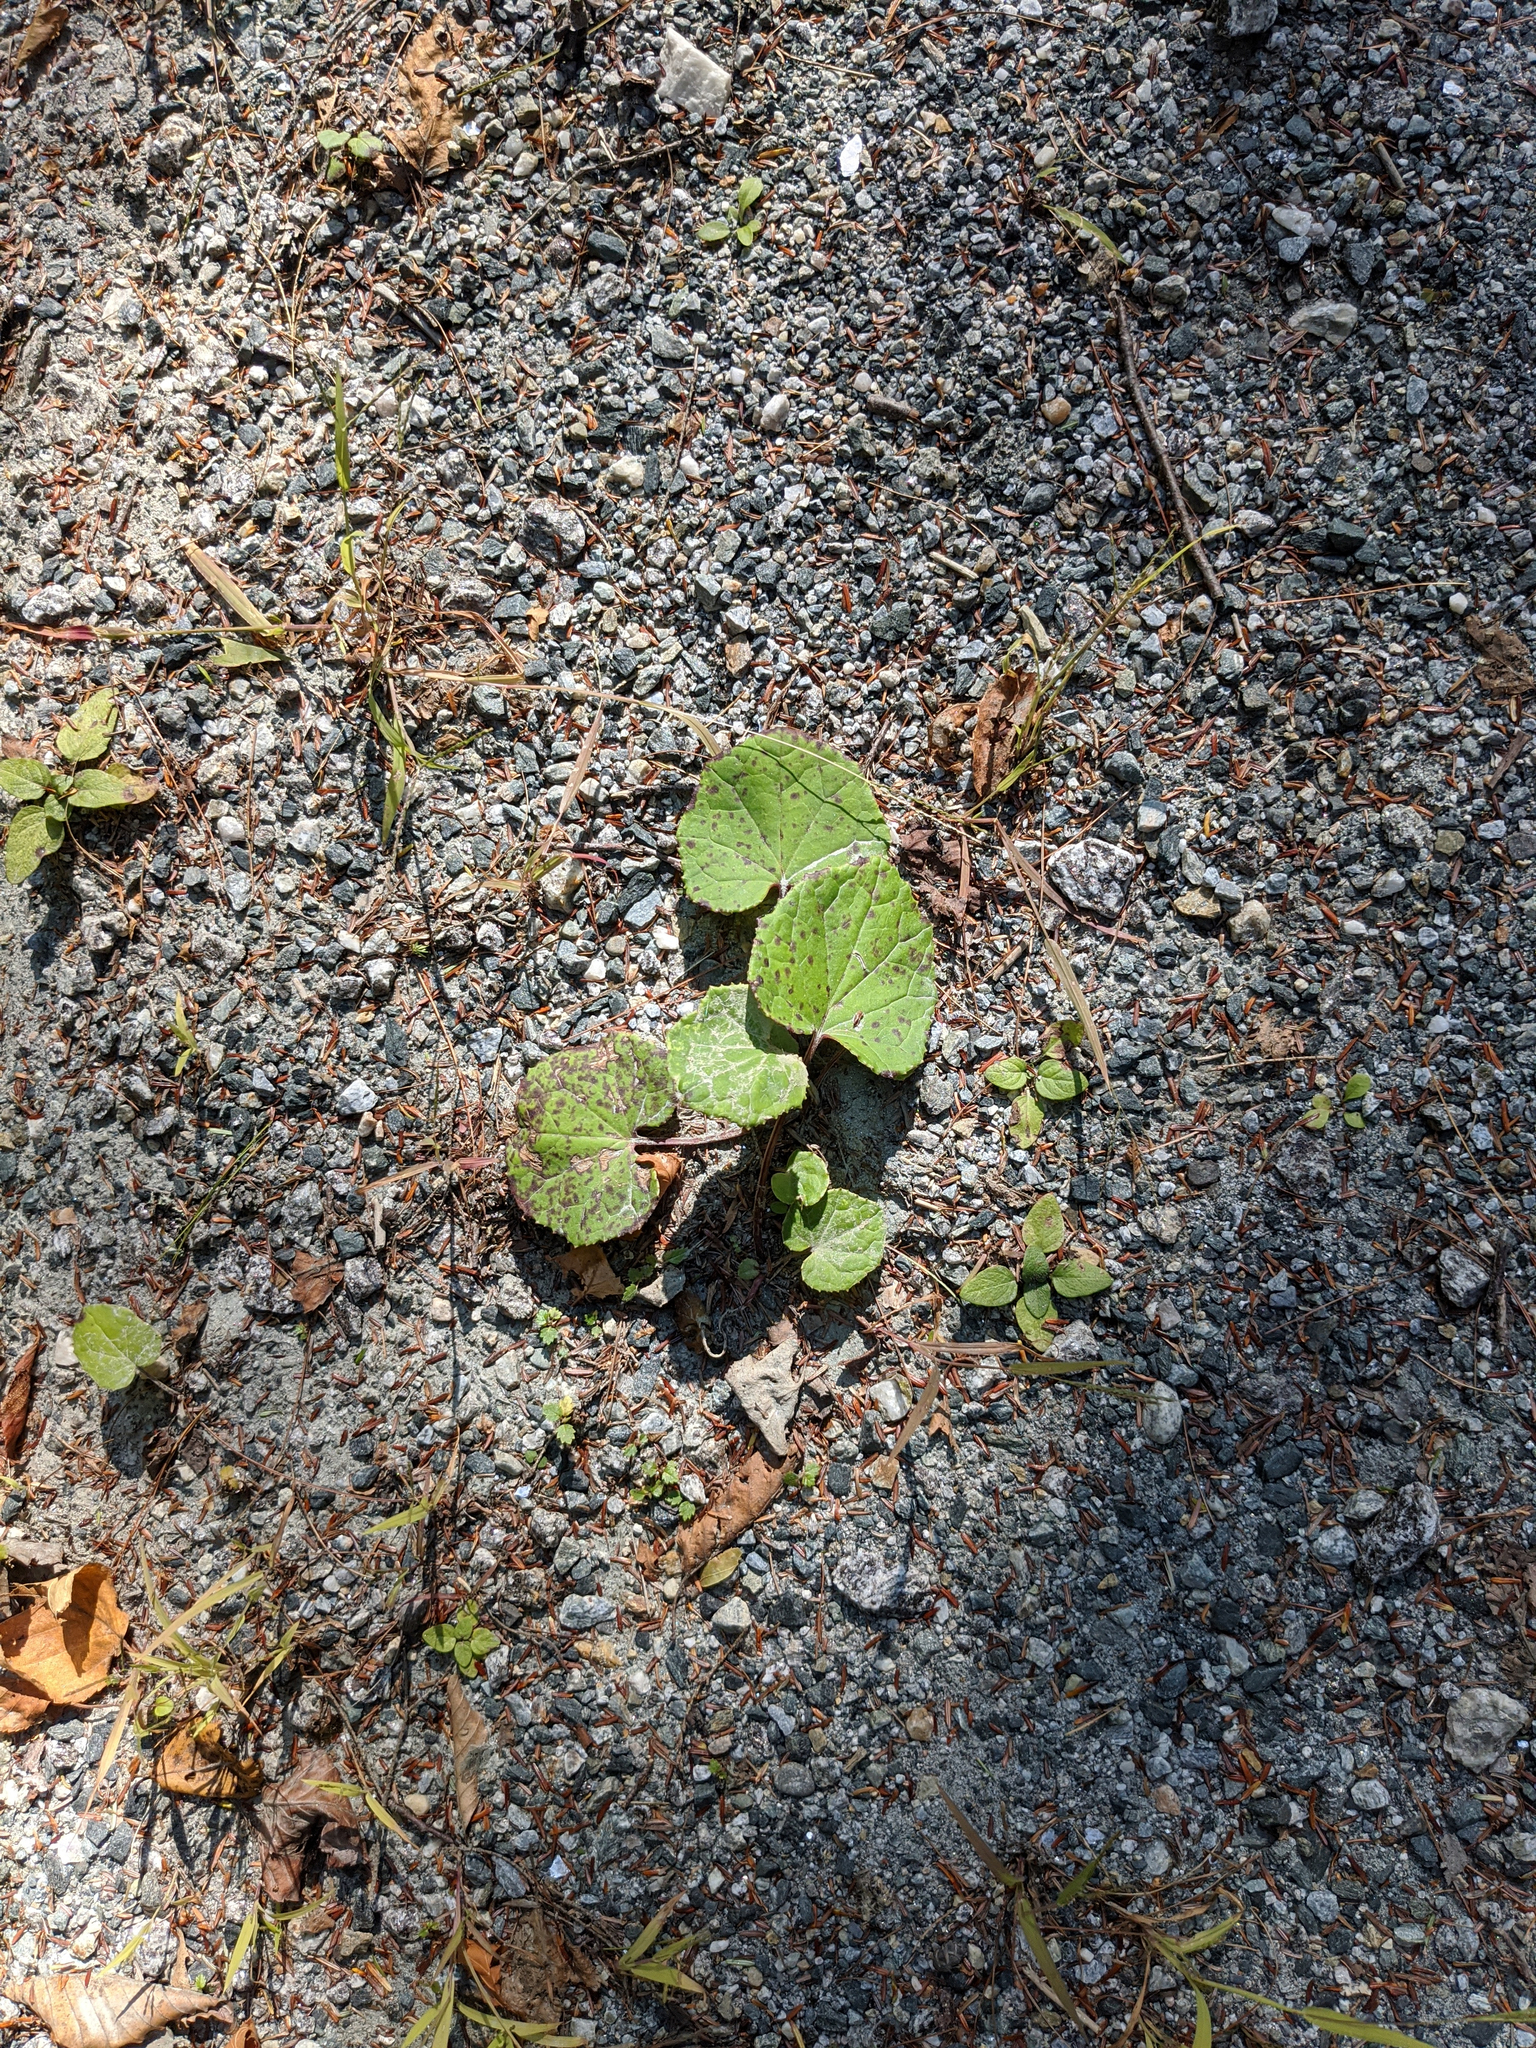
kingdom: Plantae
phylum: Tracheophyta
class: Magnoliopsida
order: Asterales
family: Asteraceae
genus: Tussilago
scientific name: Tussilago farfara
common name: Coltsfoot
